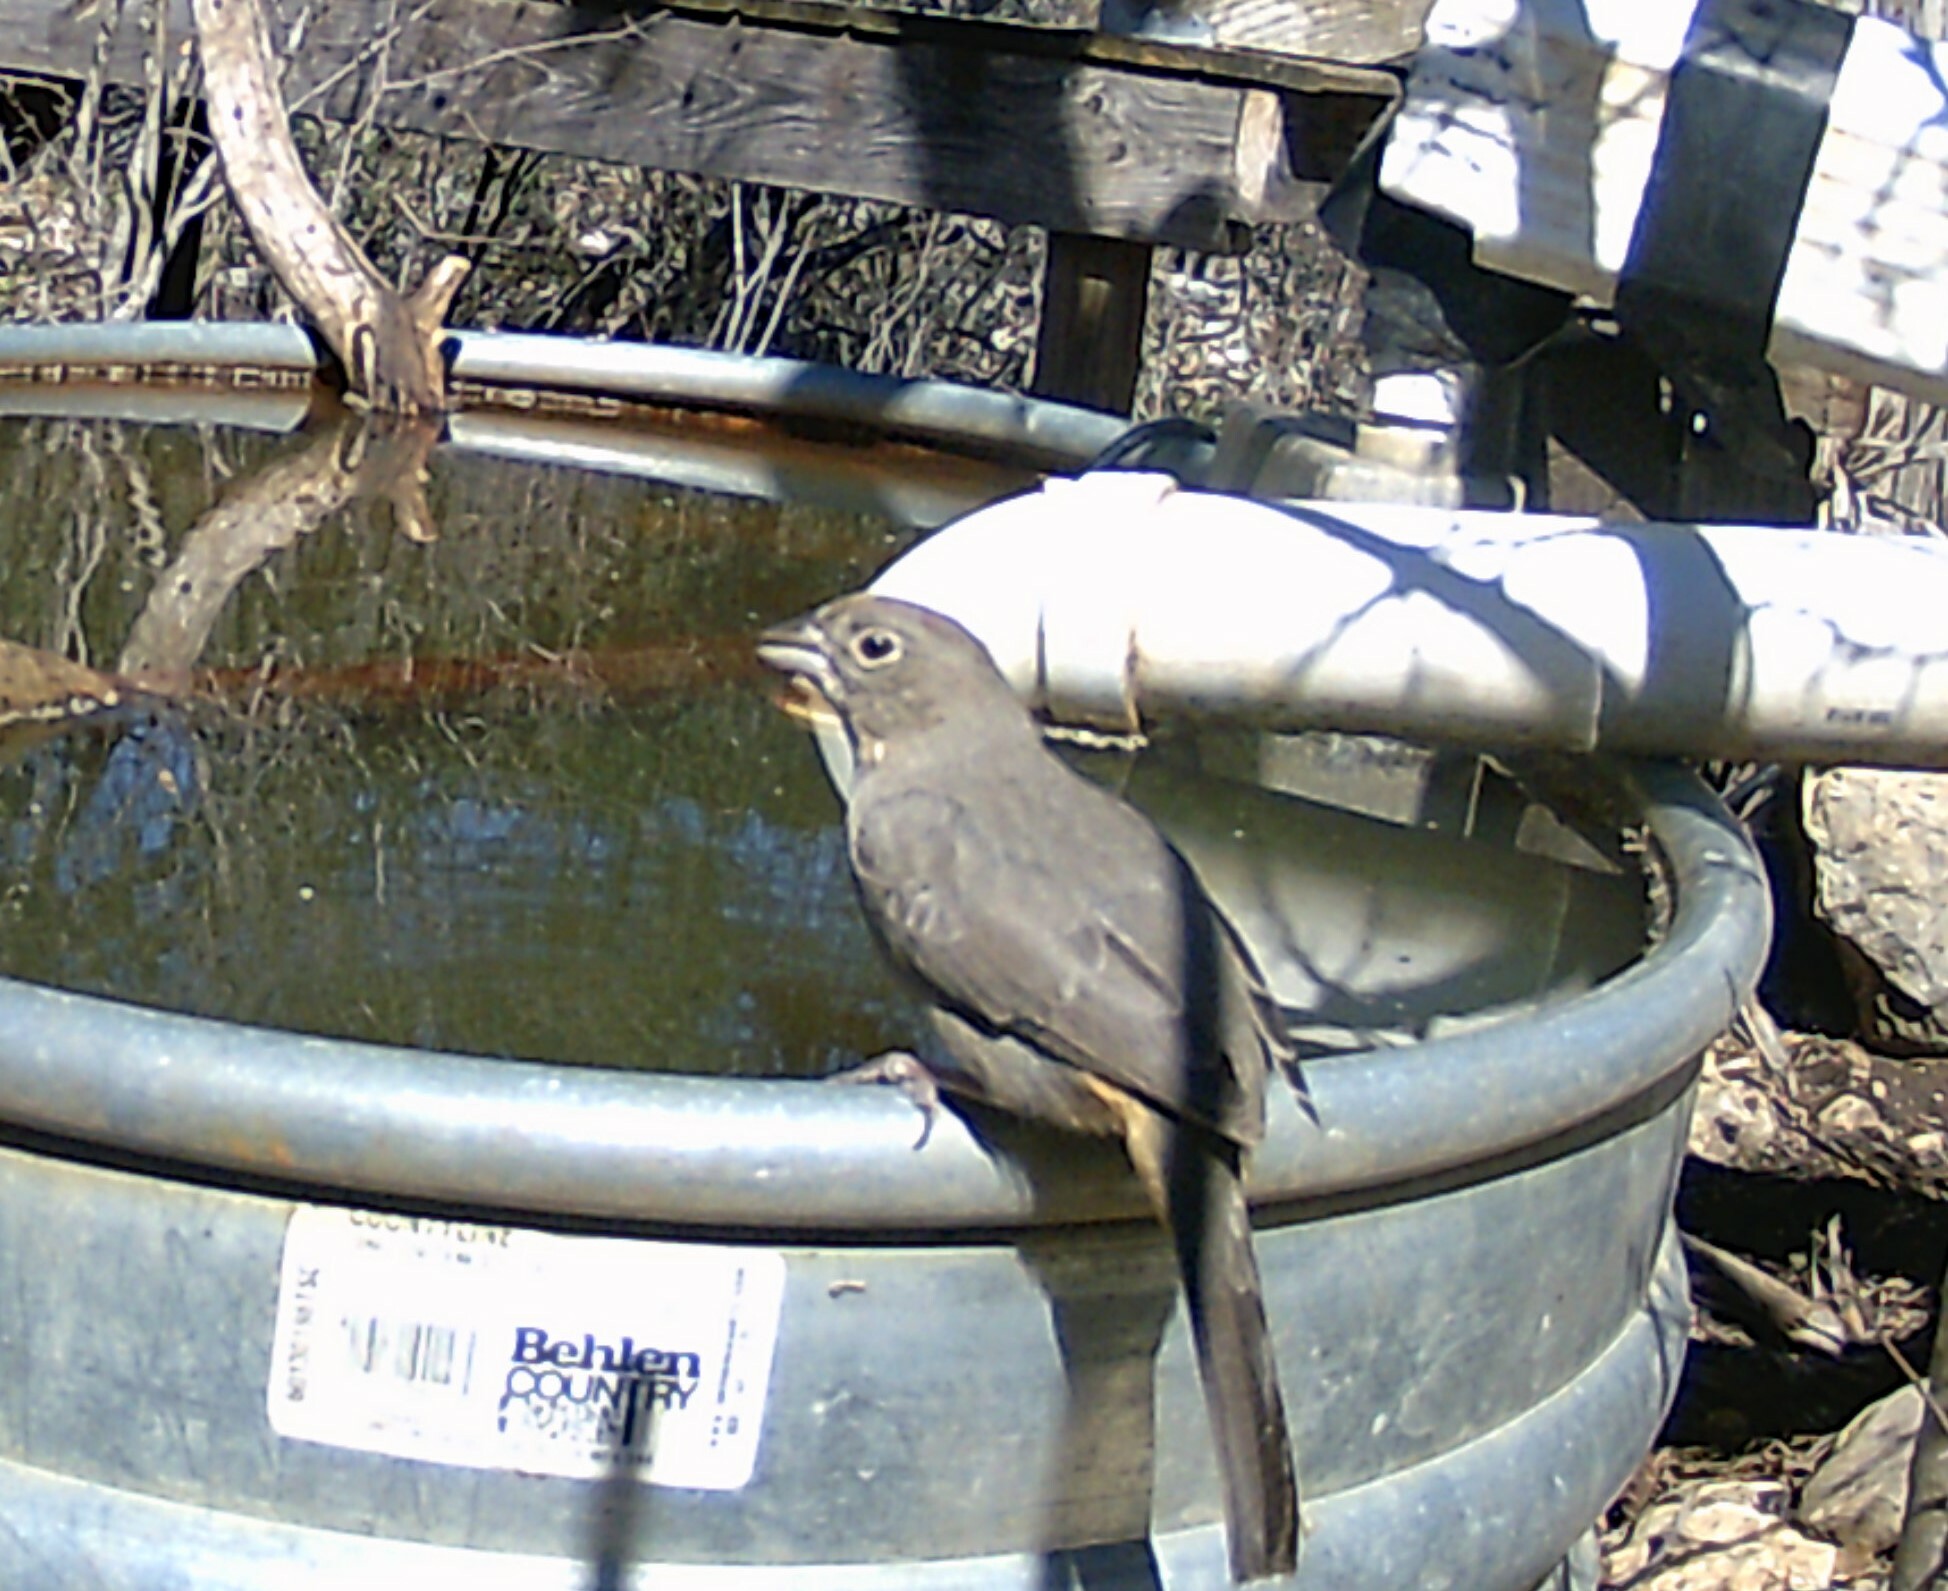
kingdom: Animalia
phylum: Chordata
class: Aves
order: Passeriformes
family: Passerellidae
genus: Melozone
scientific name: Melozone fusca
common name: Canyon towhee
